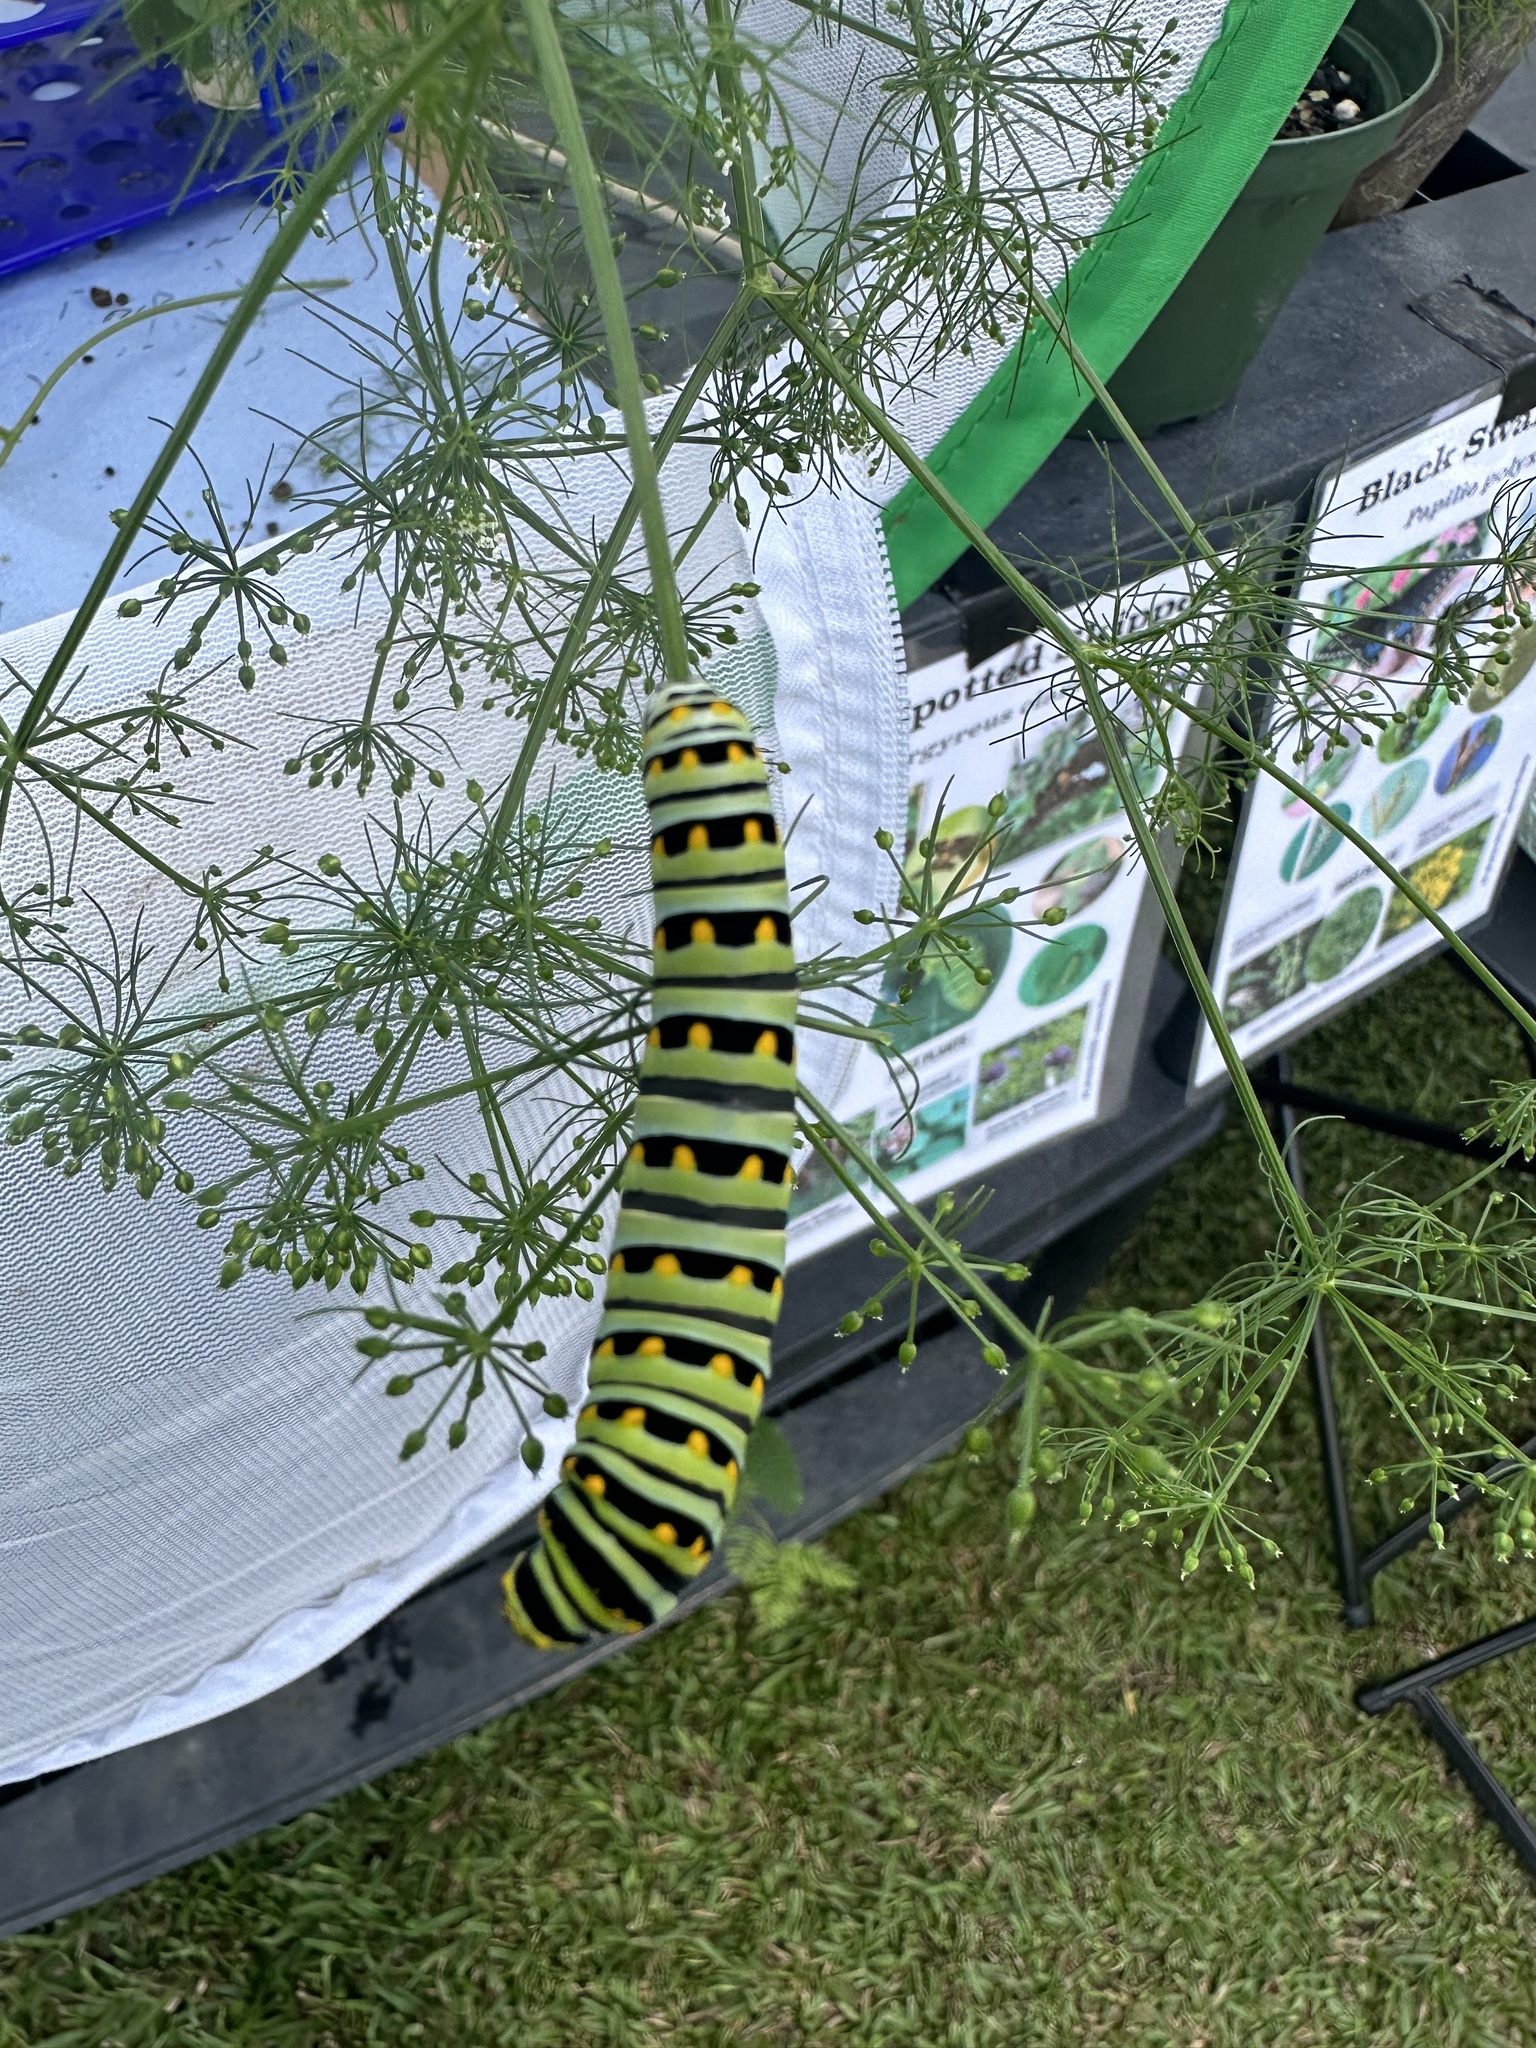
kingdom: Animalia
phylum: Arthropoda
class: Insecta
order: Lepidoptera
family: Papilionidae
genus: Papilio
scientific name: Papilio polyxenes
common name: Black swallowtail
